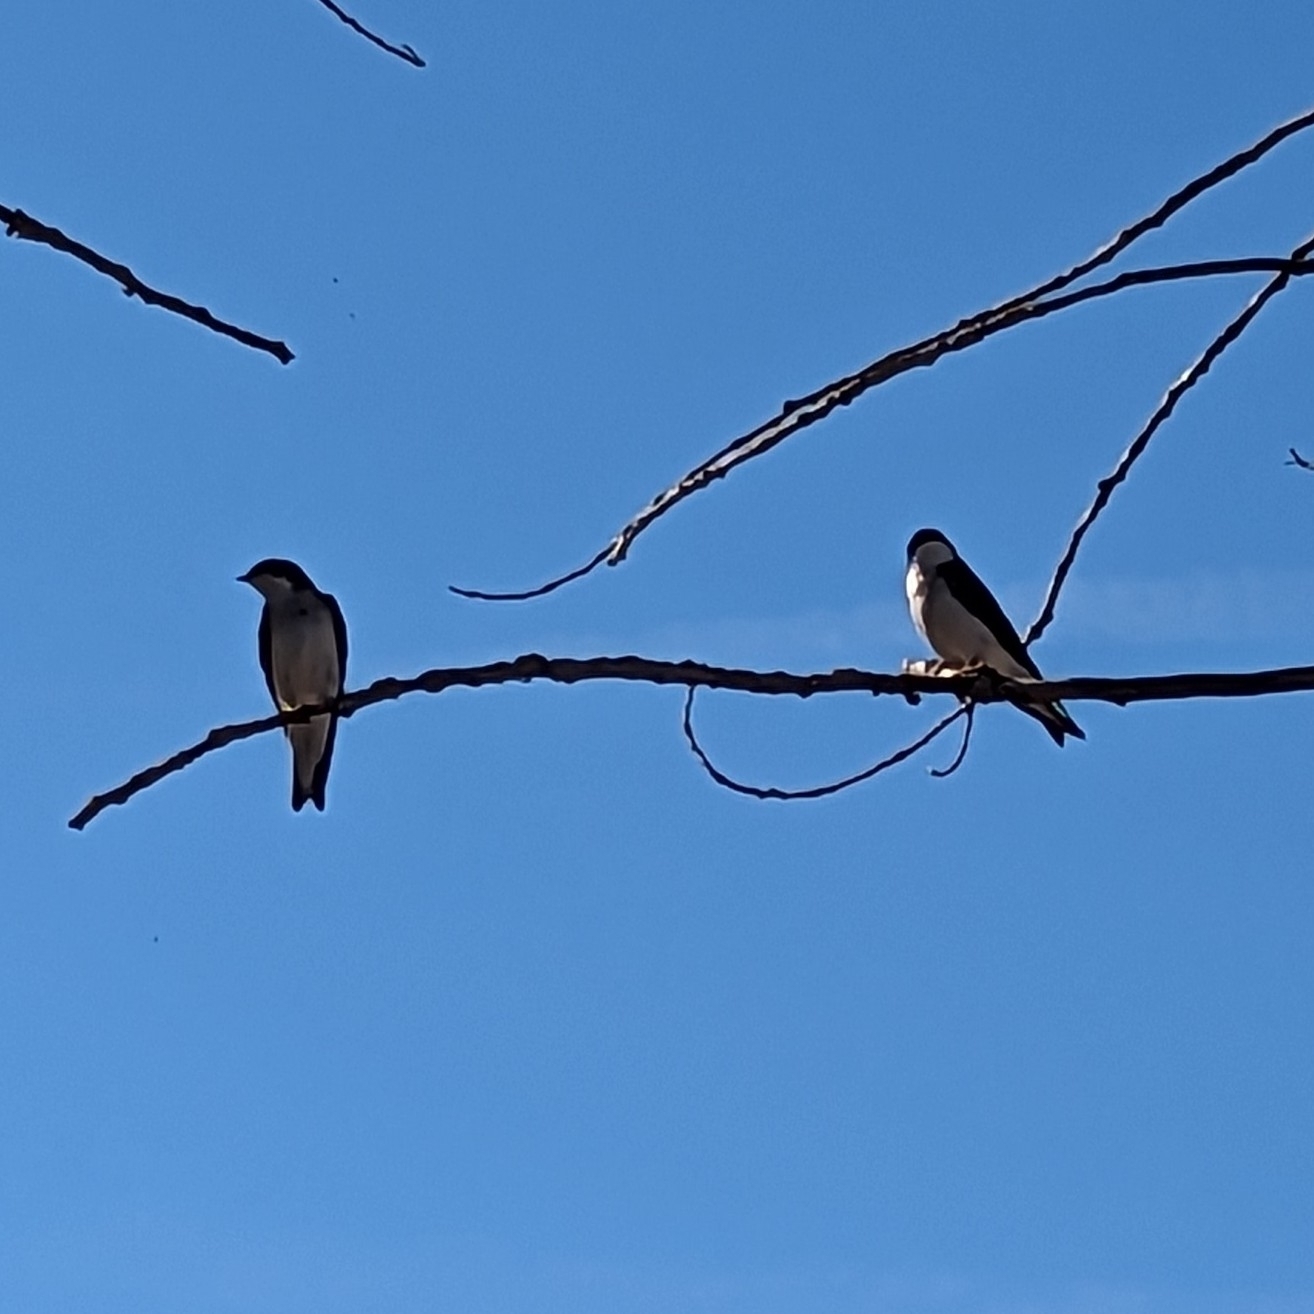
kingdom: Animalia
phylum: Chordata
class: Aves
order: Passeriformes
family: Hirundinidae
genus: Tachycineta
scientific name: Tachycineta bicolor
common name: Tree swallow
